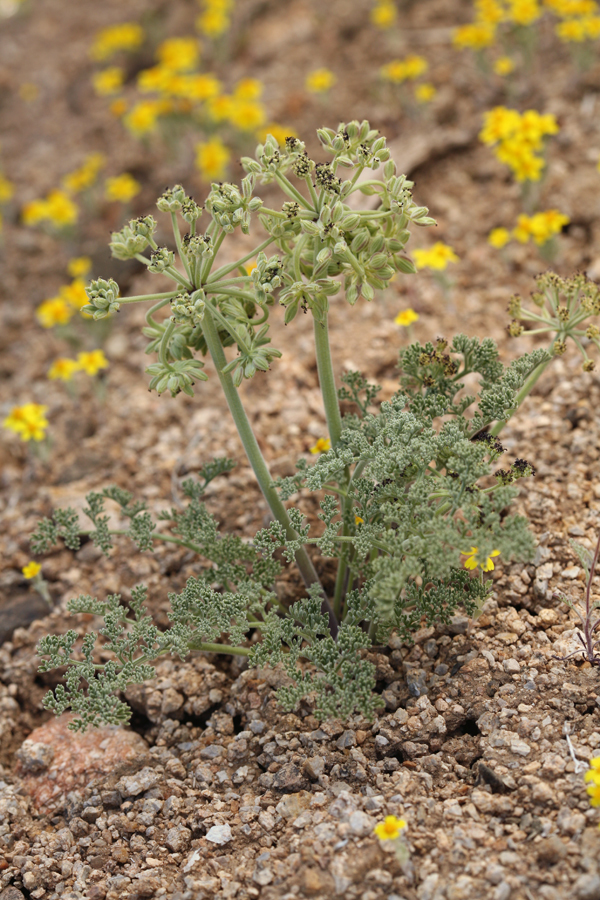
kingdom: Plantae
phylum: Tracheophyta
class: Magnoliopsida
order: Apiales
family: Apiaceae
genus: Lomatium
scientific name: Lomatium mohavense
